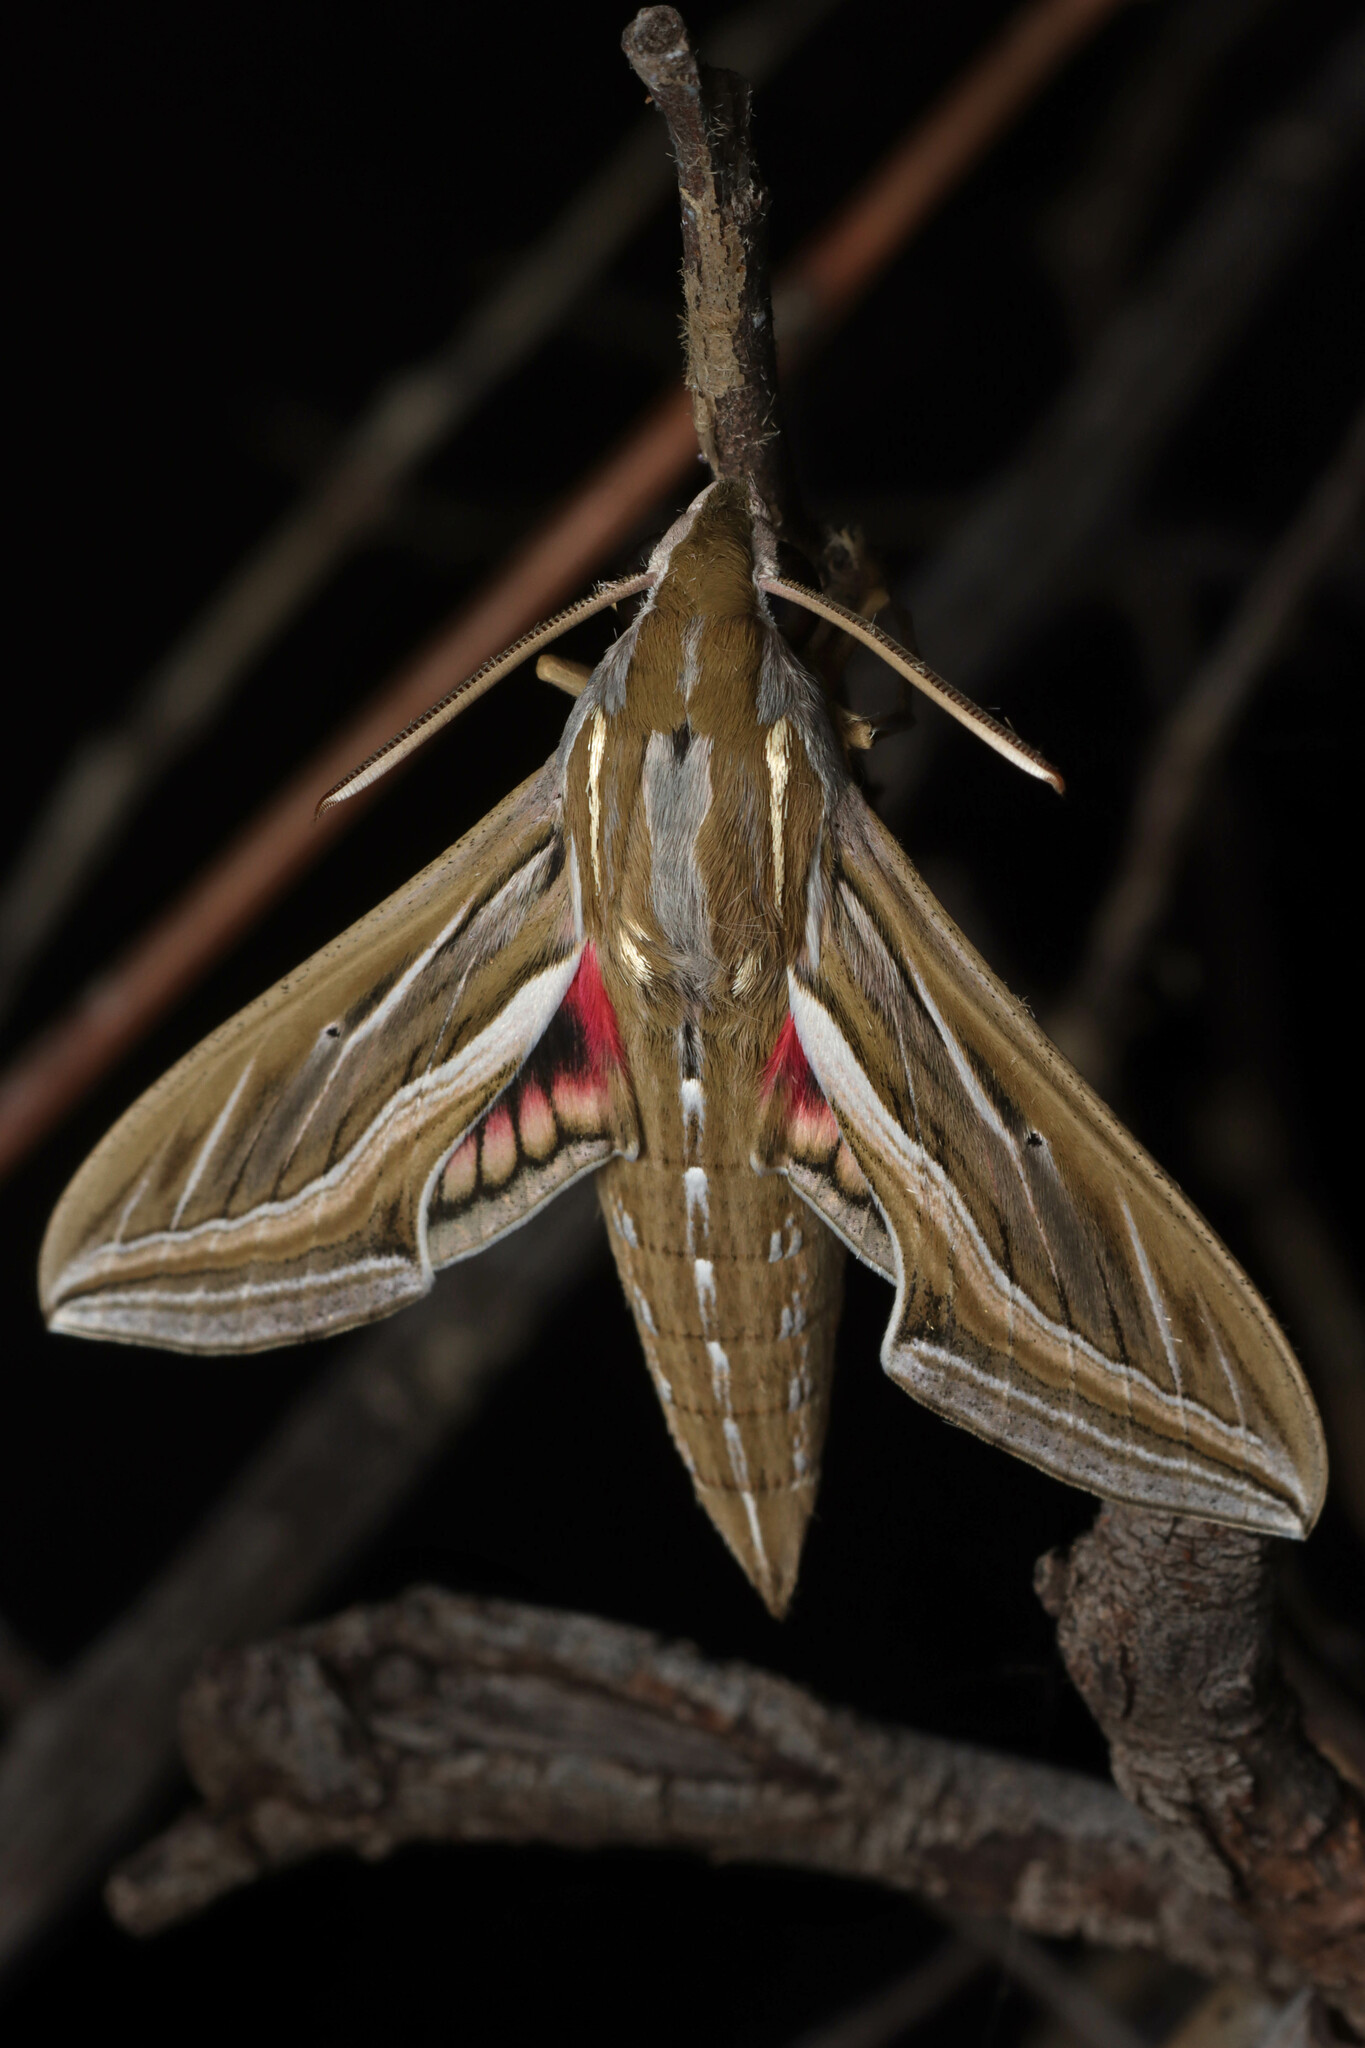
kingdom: Animalia
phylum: Arthropoda
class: Insecta
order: Lepidoptera
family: Sphingidae
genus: Hippotion
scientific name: Hippotion celerio
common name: Silver-striped hawk-moth
